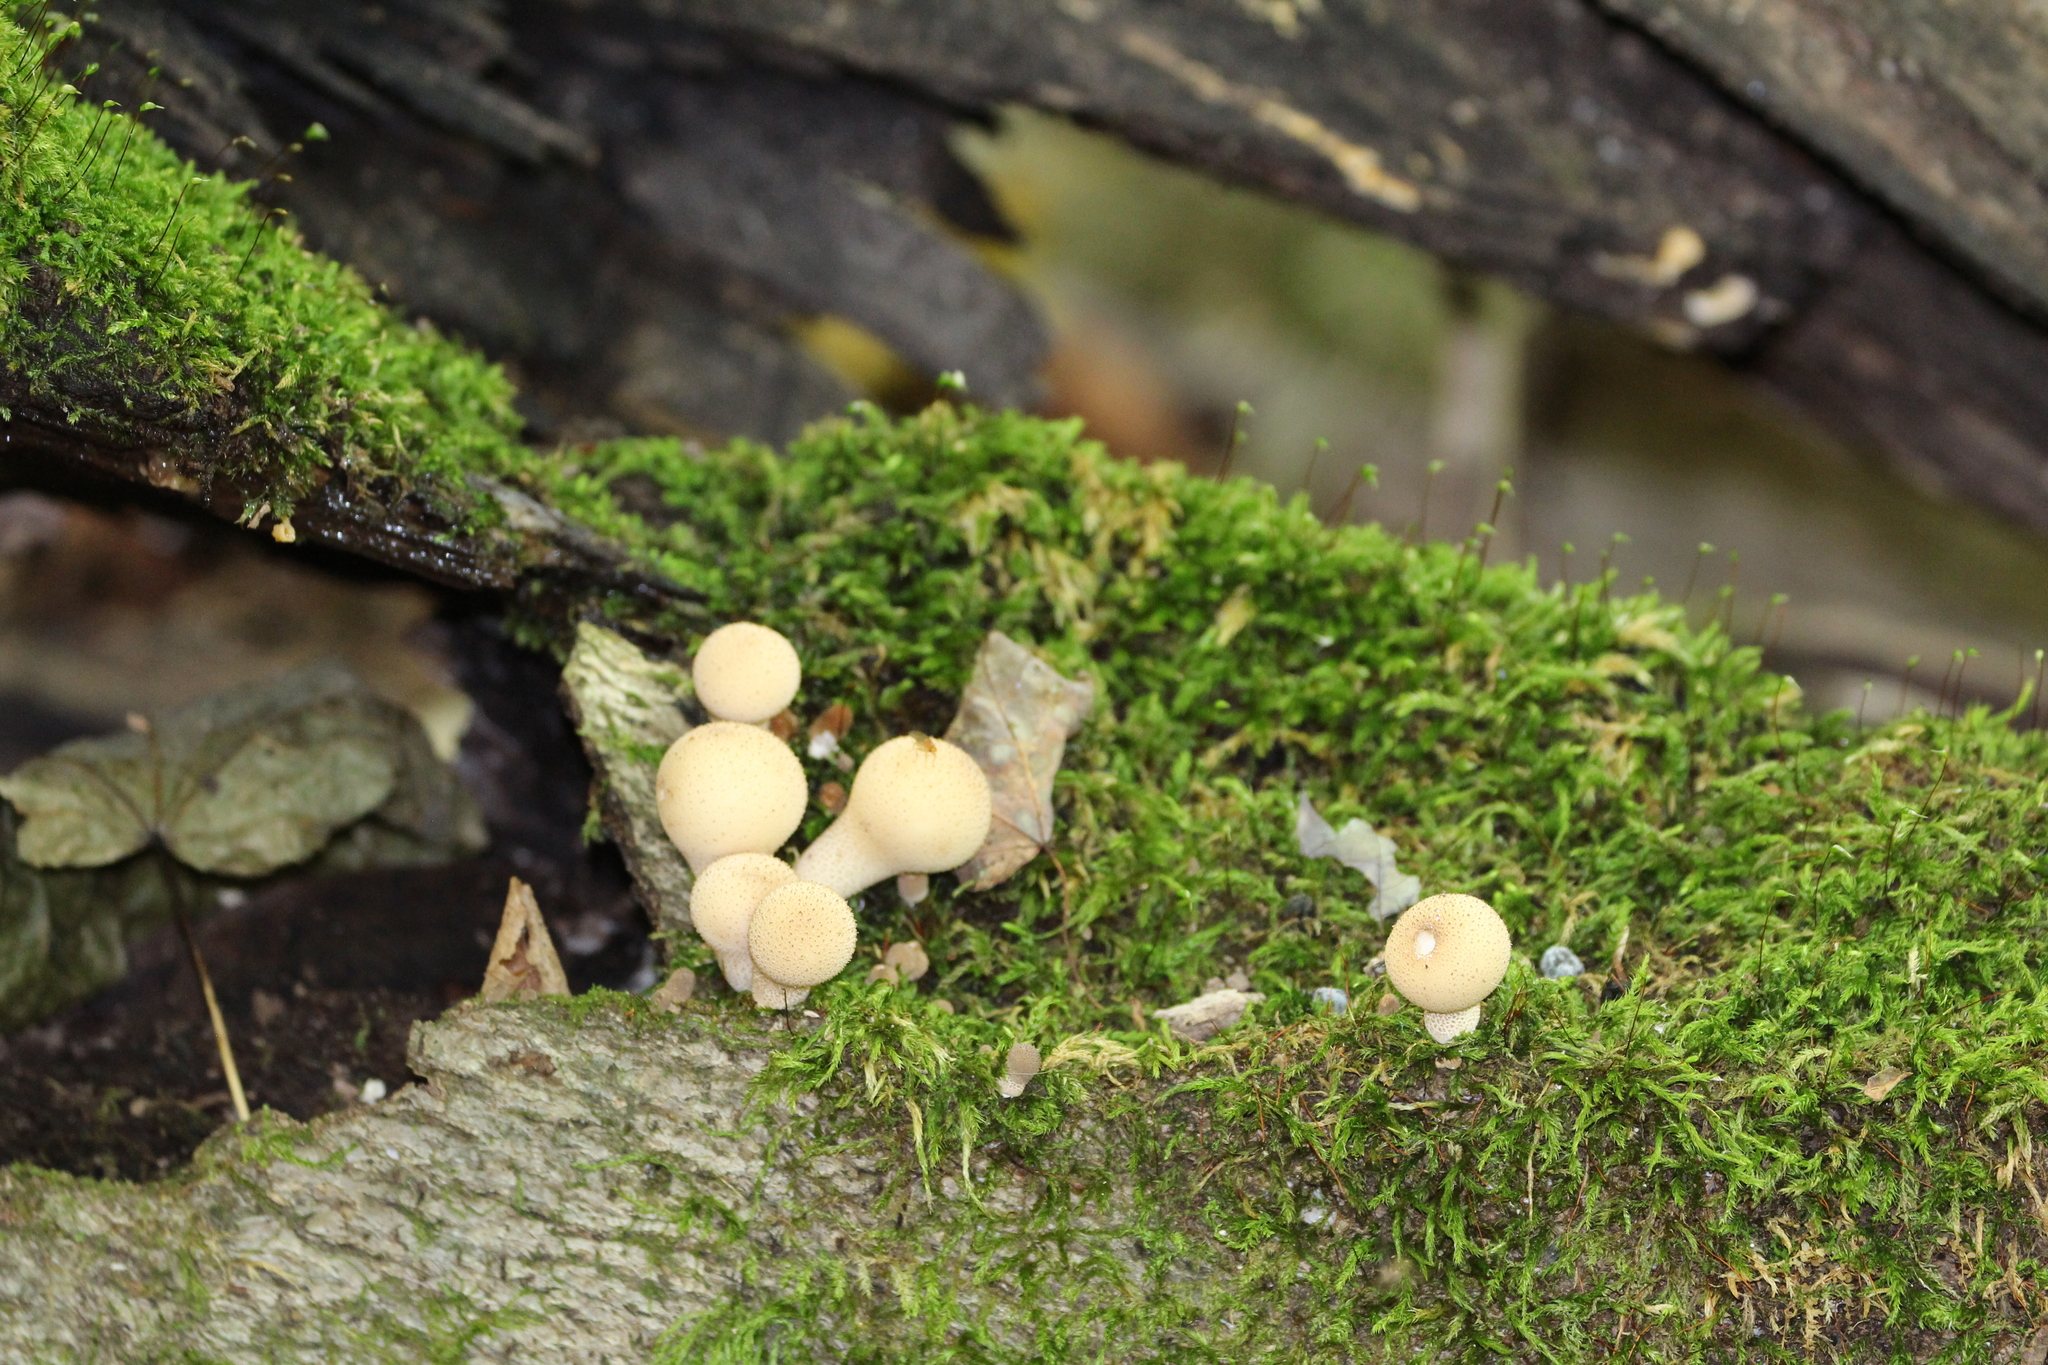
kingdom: Fungi
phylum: Basidiomycota
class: Agaricomycetes
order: Agaricales
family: Lycoperdaceae
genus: Lycoperdon
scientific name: Lycoperdon perlatum
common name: Common puffball
